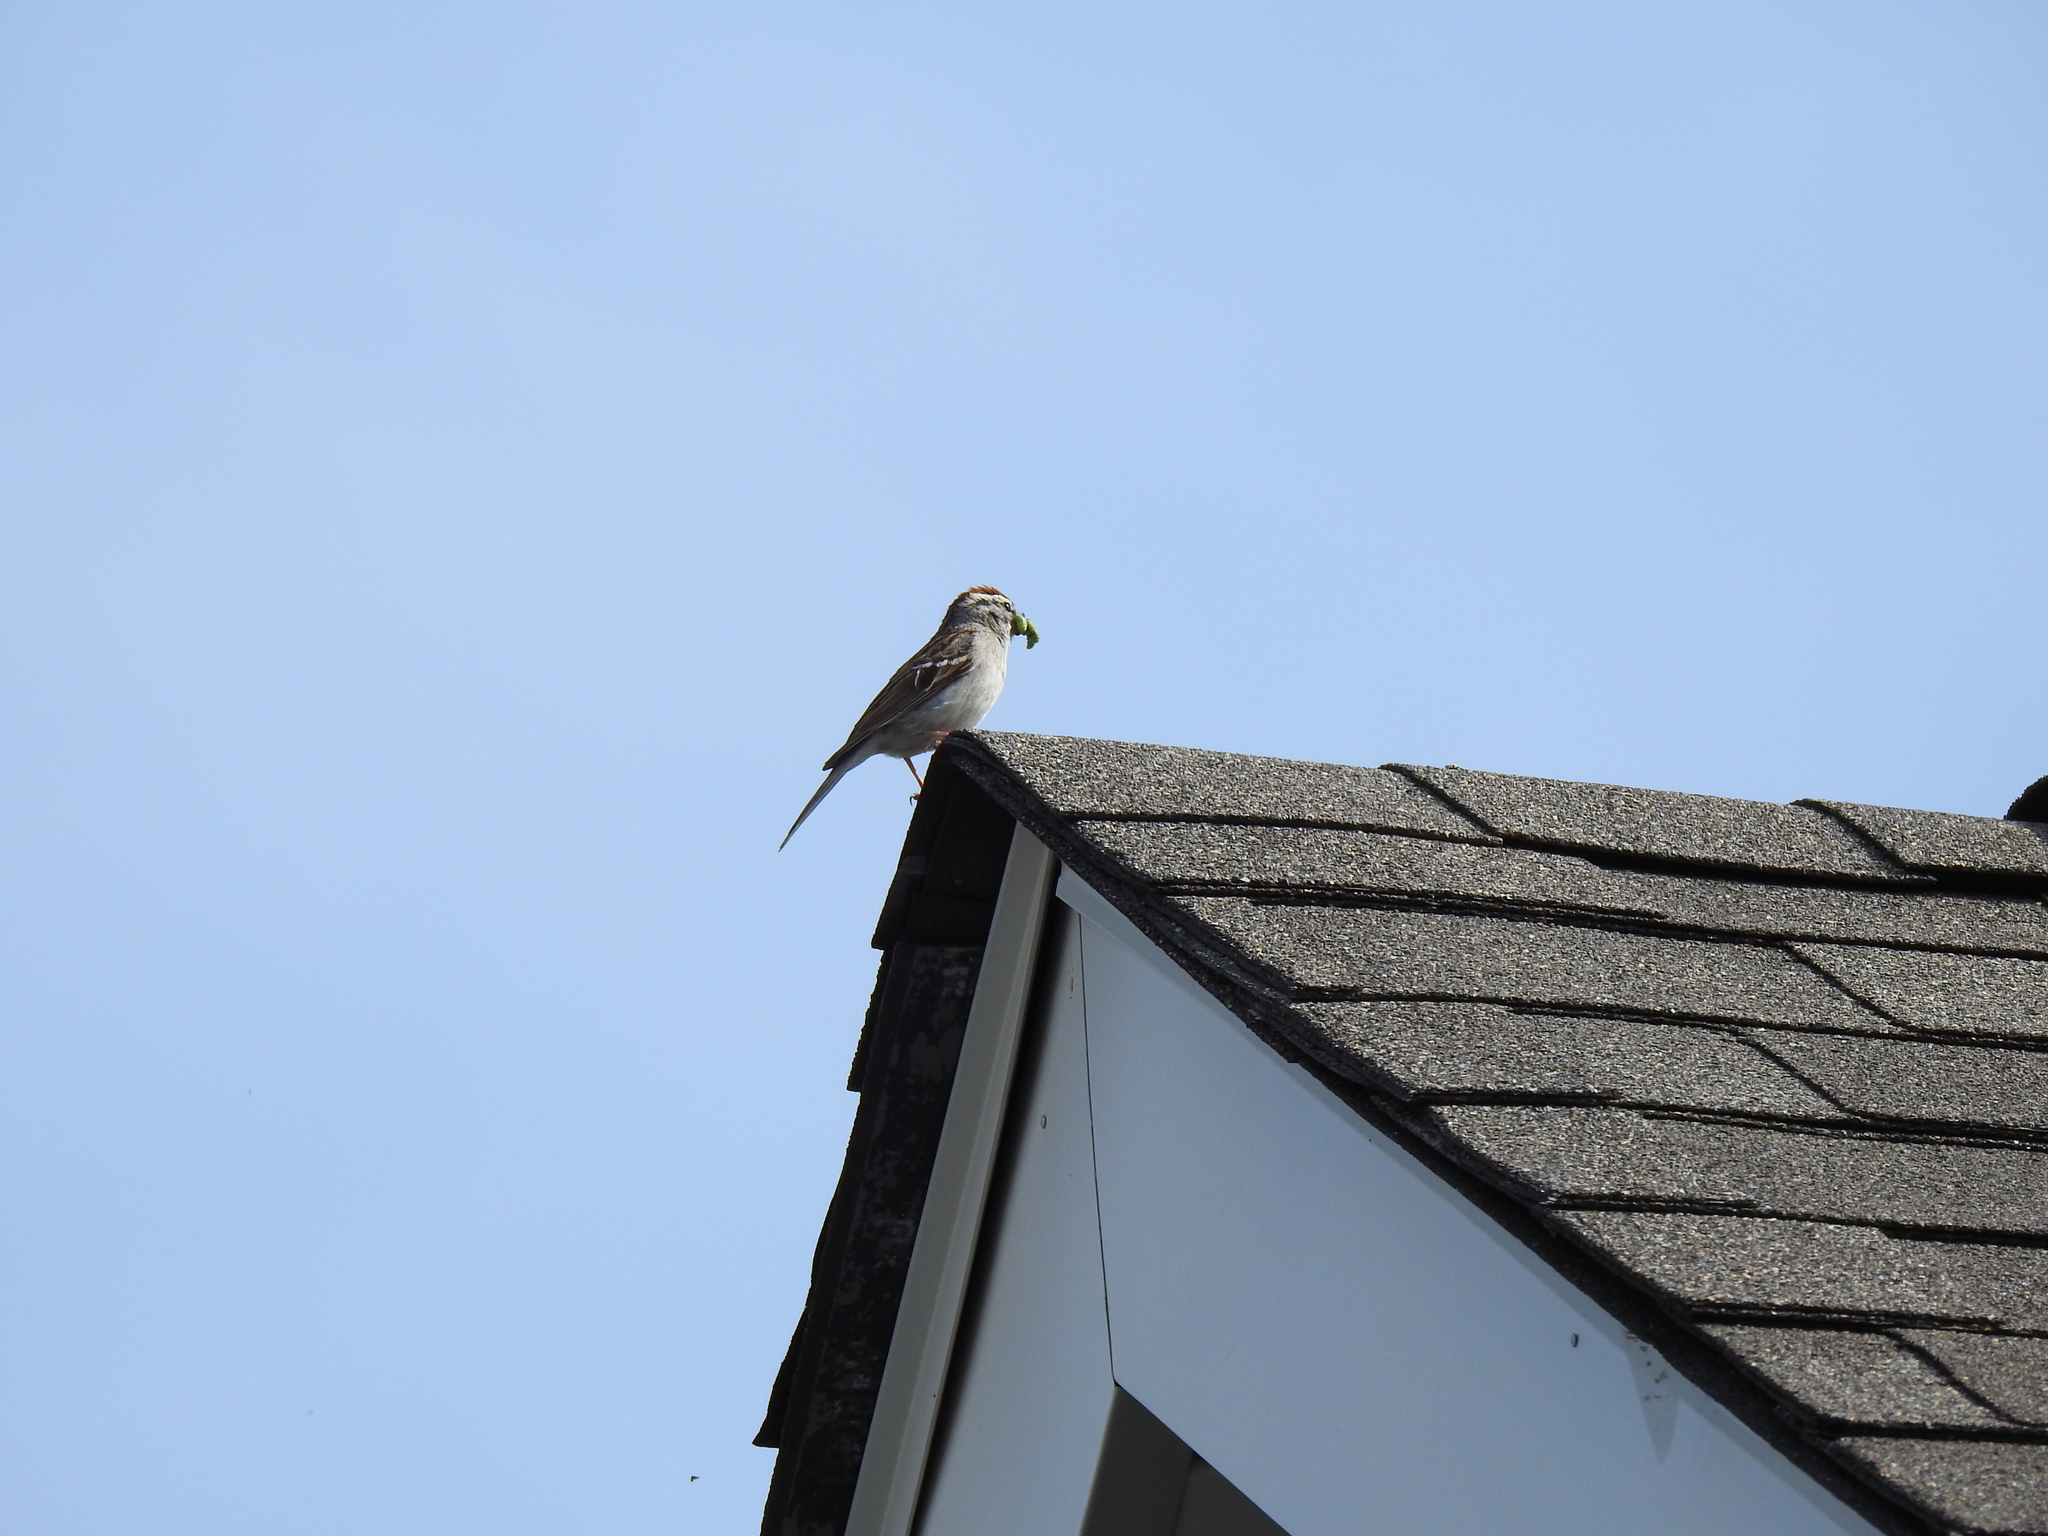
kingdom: Animalia
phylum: Chordata
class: Aves
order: Passeriformes
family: Passerellidae
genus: Spizella
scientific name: Spizella passerina
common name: Chipping sparrow
